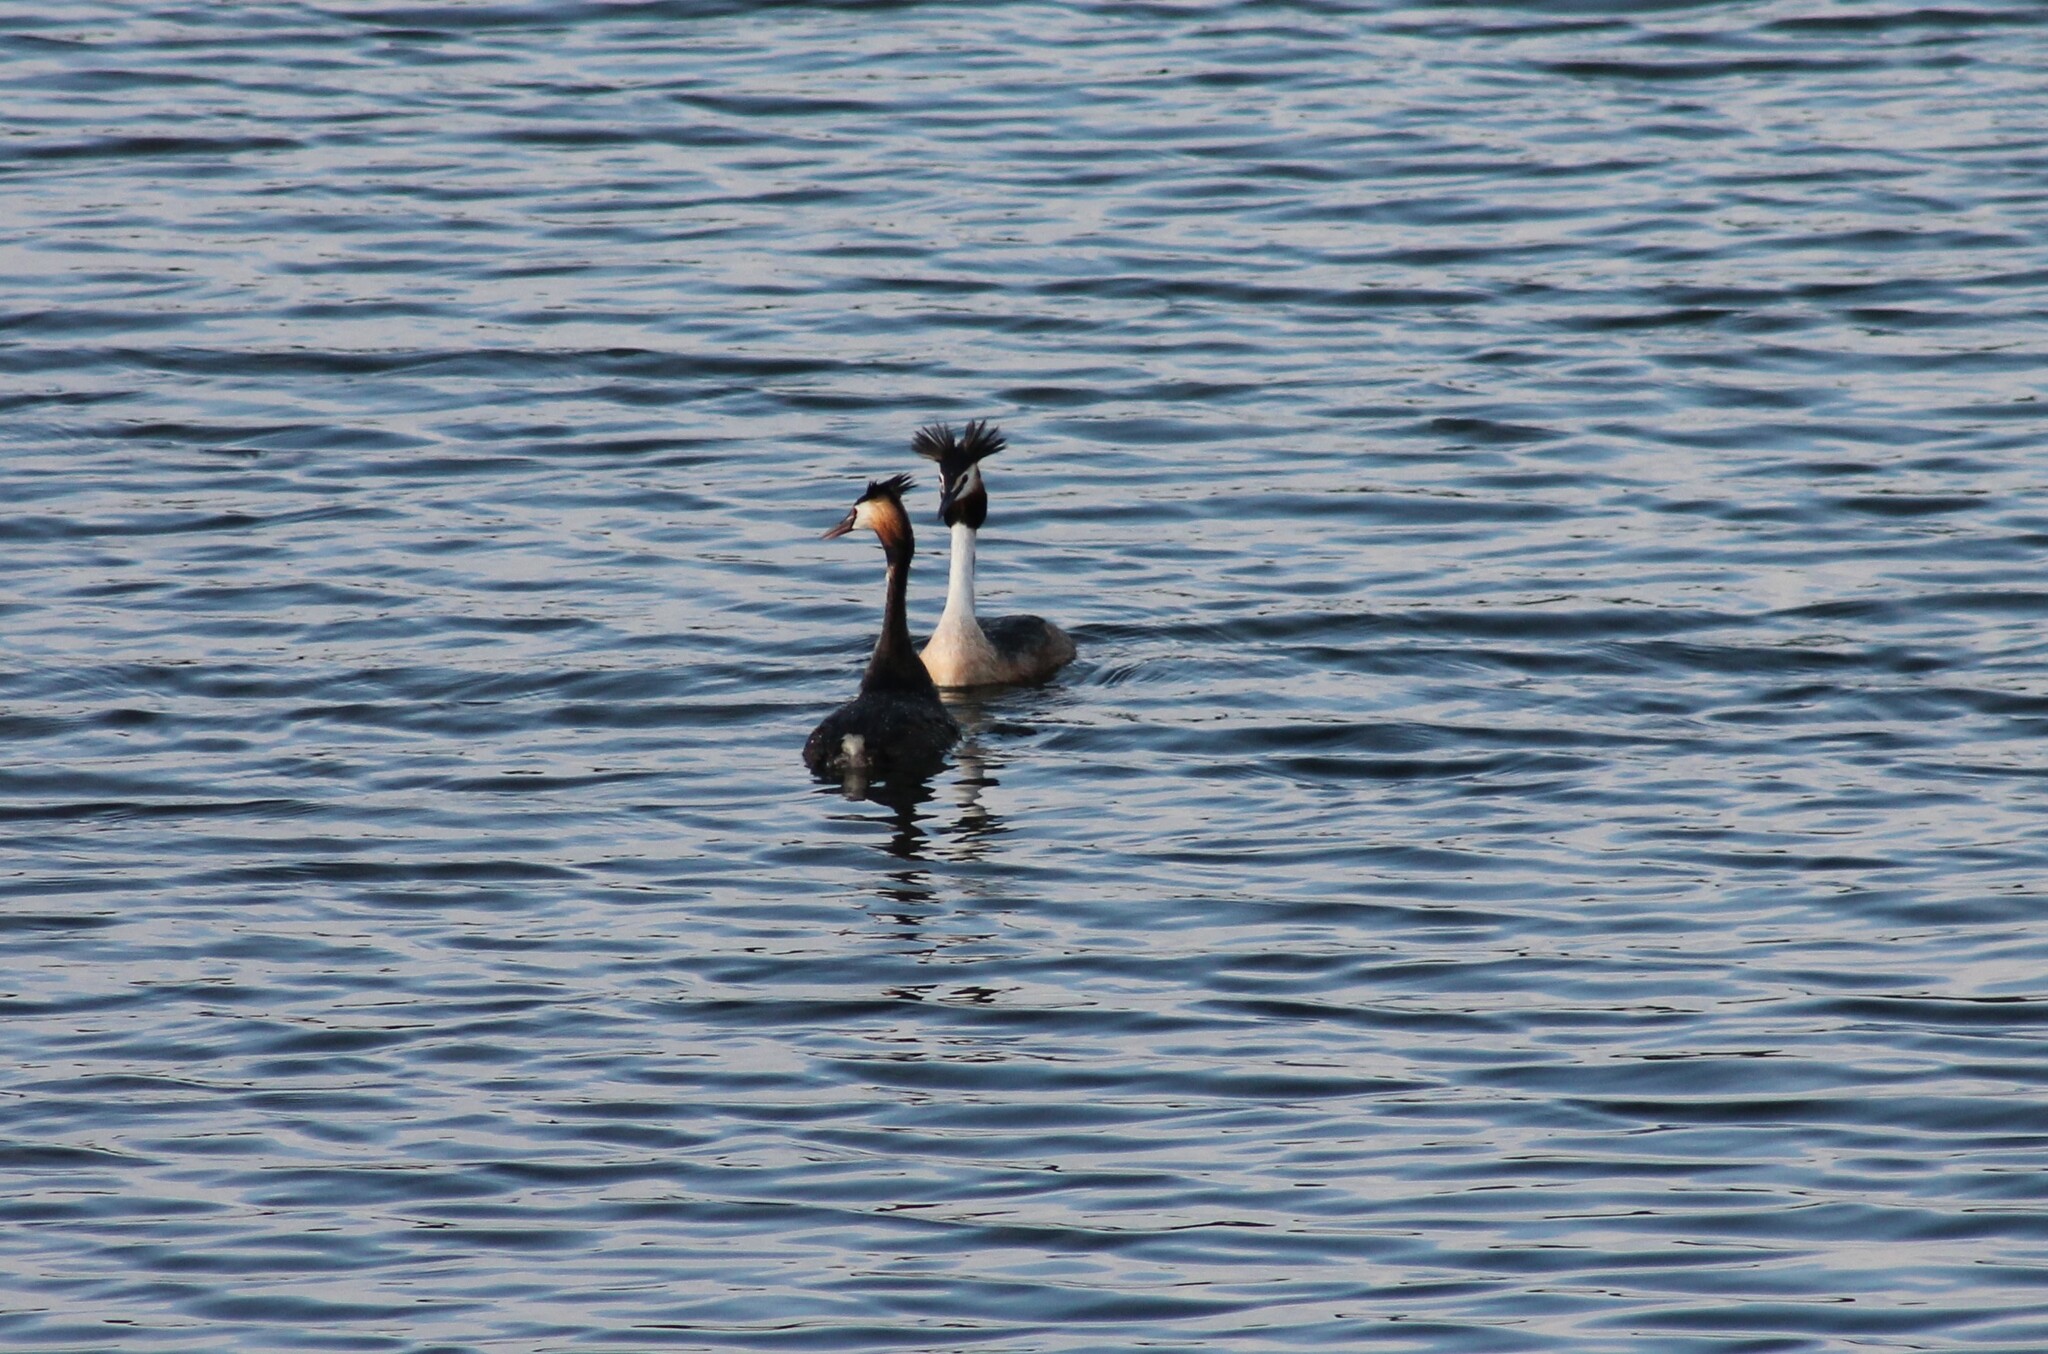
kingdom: Animalia
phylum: Chordata
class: Aves
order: Podicipediformes
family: Podicipedidae
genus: Podiceps
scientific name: Podiceps cristatus
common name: Great crested grebe
